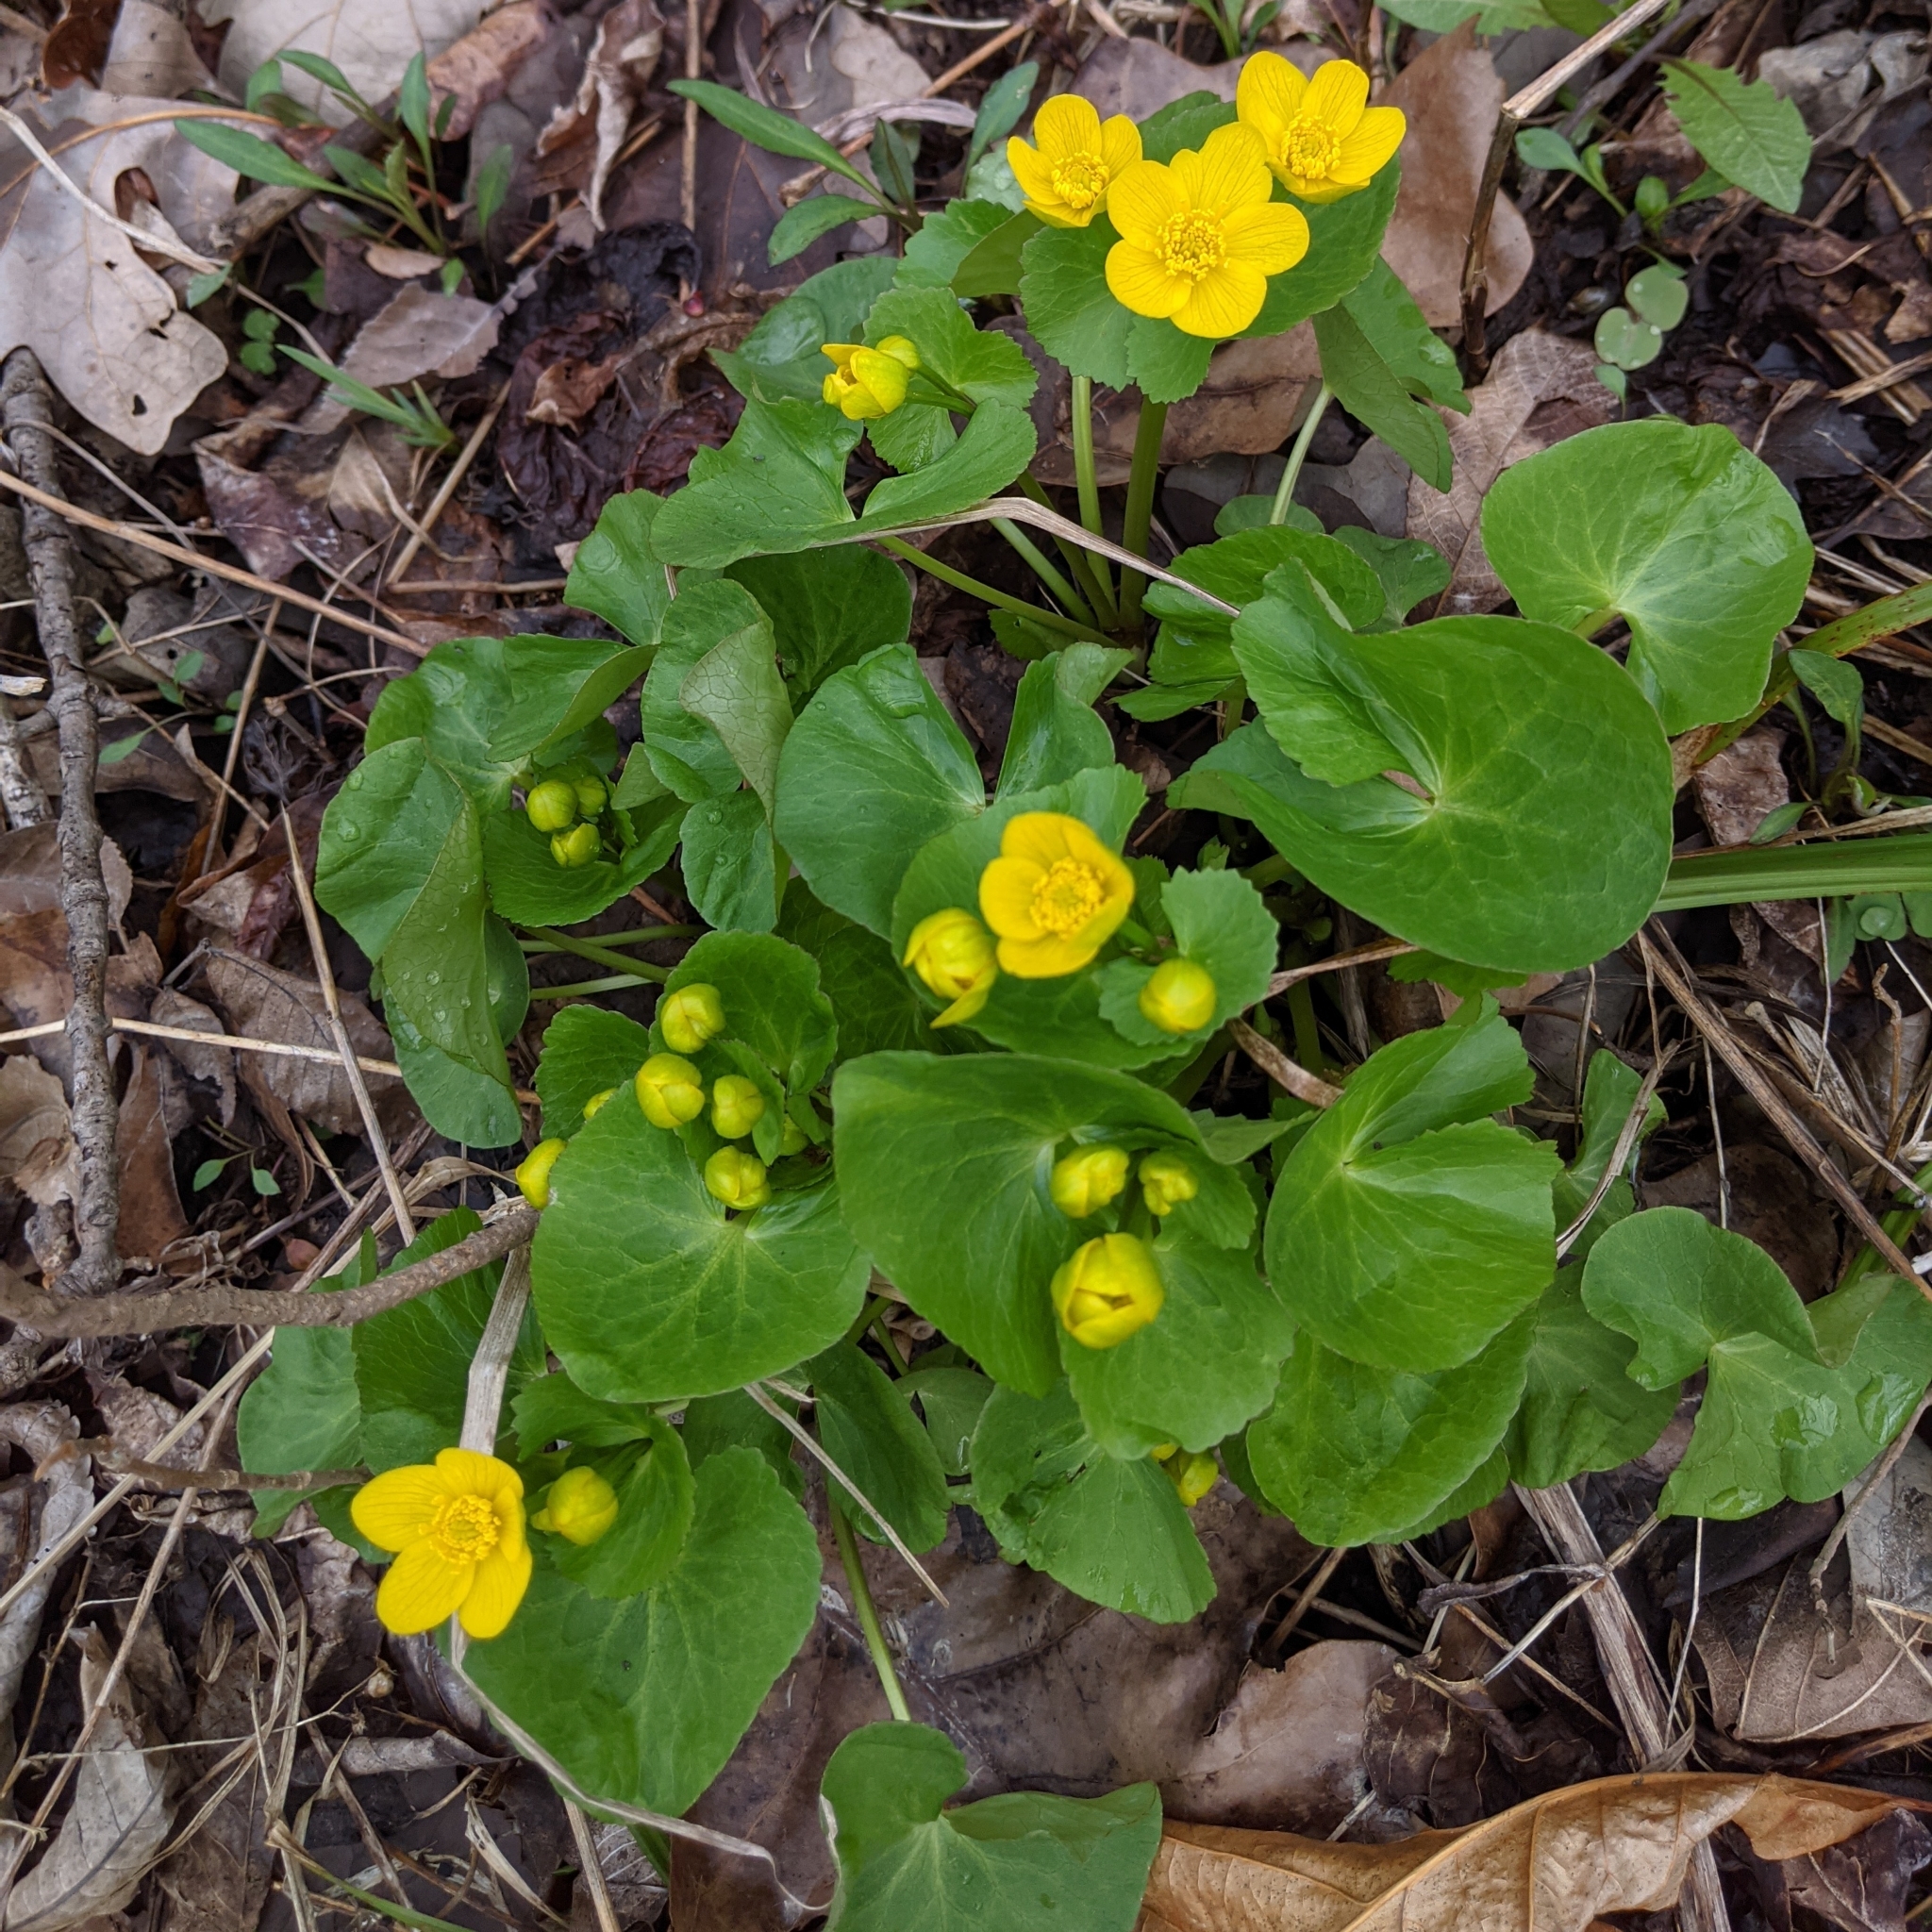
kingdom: Plantae
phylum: Tracheophyta
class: Magnoliopsida
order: Ranunculales
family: Ranunculaceae
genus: Caltha
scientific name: Caltha palustris
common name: Marsh marigold
